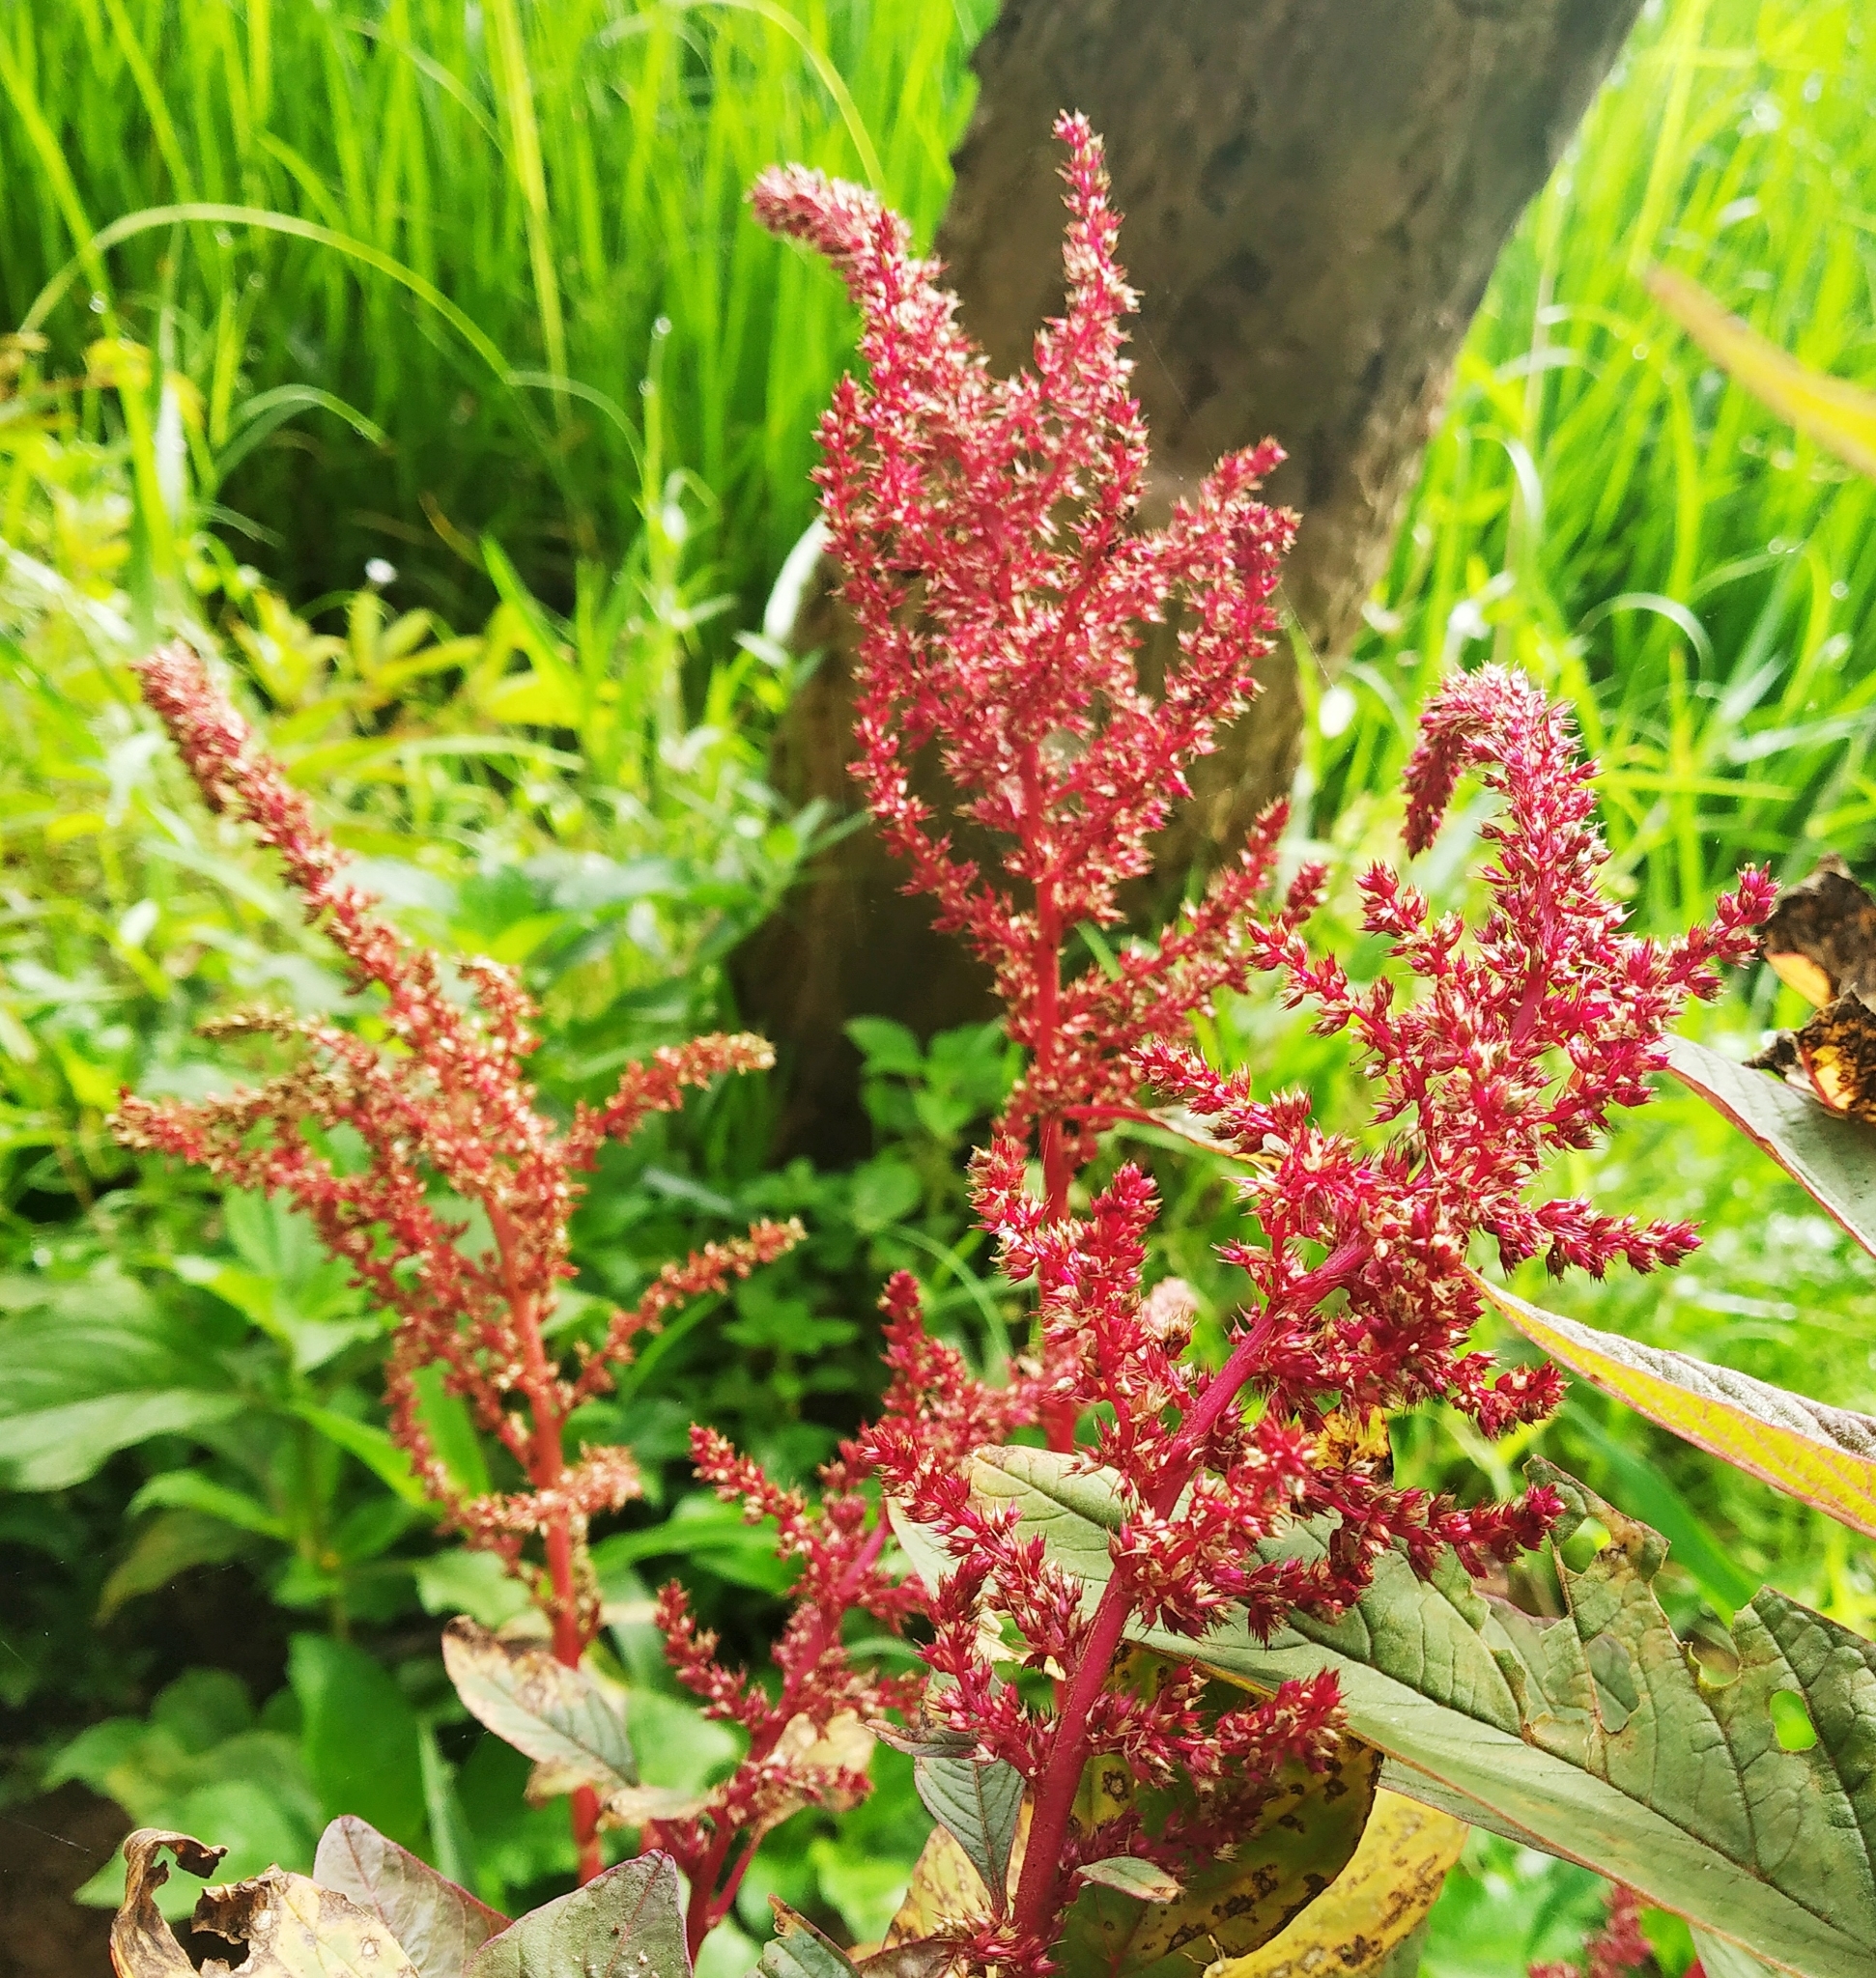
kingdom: Plantae
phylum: Tracheophyta
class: Magnoliopsida
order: Caryophyllales
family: Amaranthaceae
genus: Amaranthus
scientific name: Amaranthus cruentus
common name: Purple amaranth
